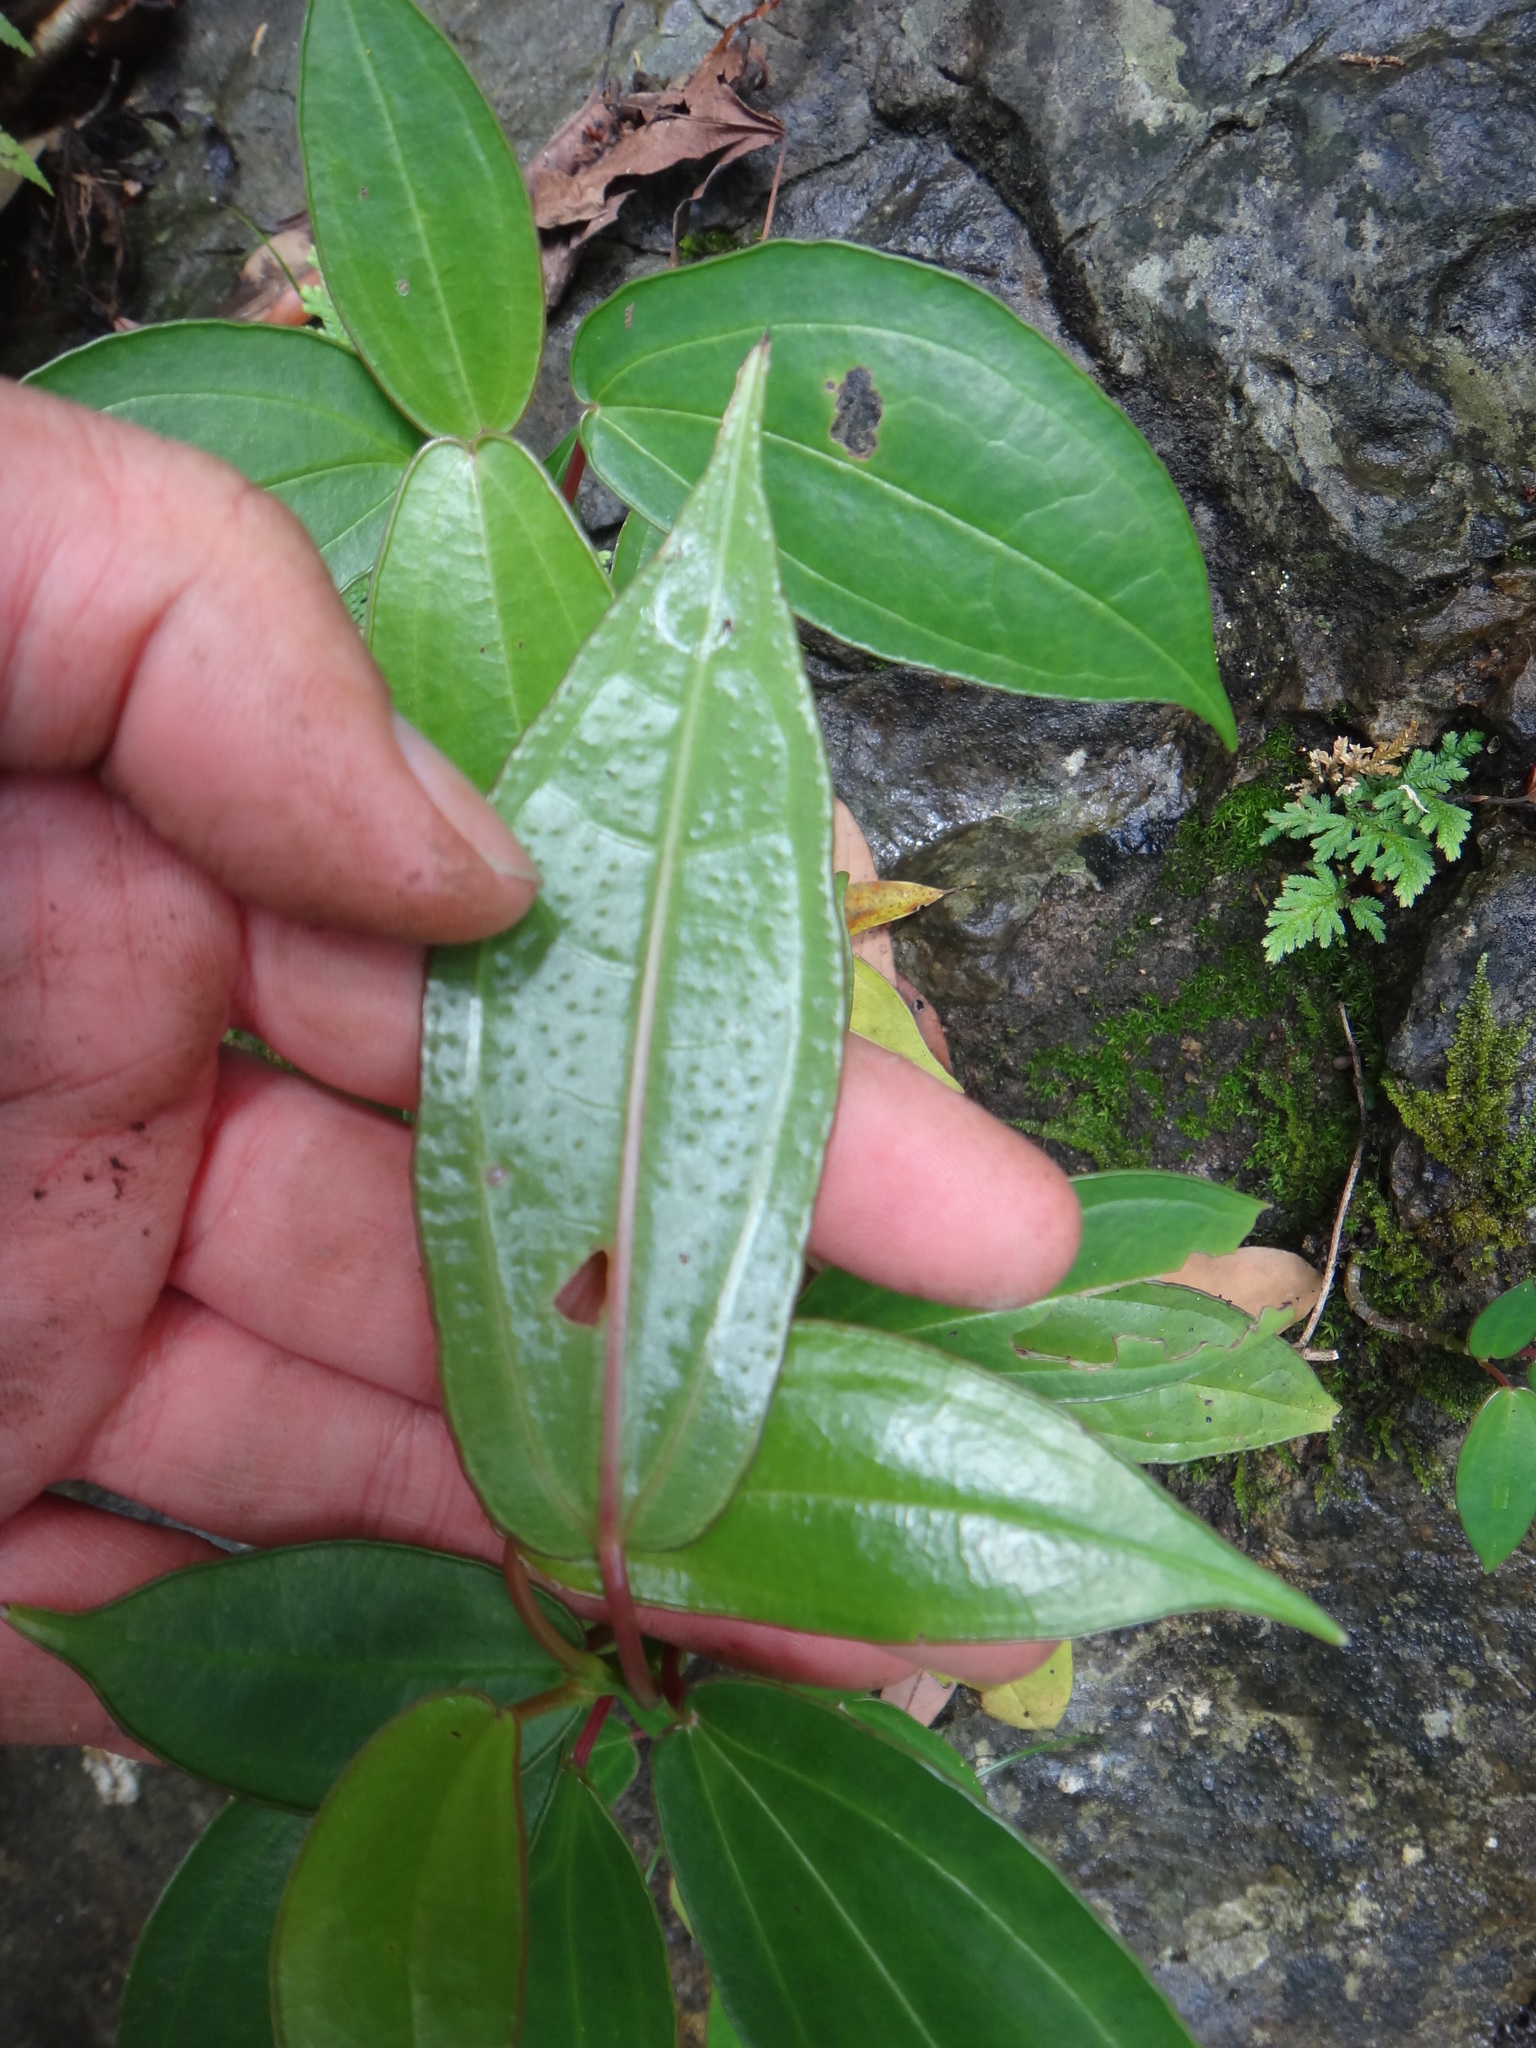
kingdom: Plantae
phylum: Tracheophyta
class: Magnoliopsida
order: Rosales
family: Urticaceae
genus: Pilea
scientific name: Pilea plataniflora
